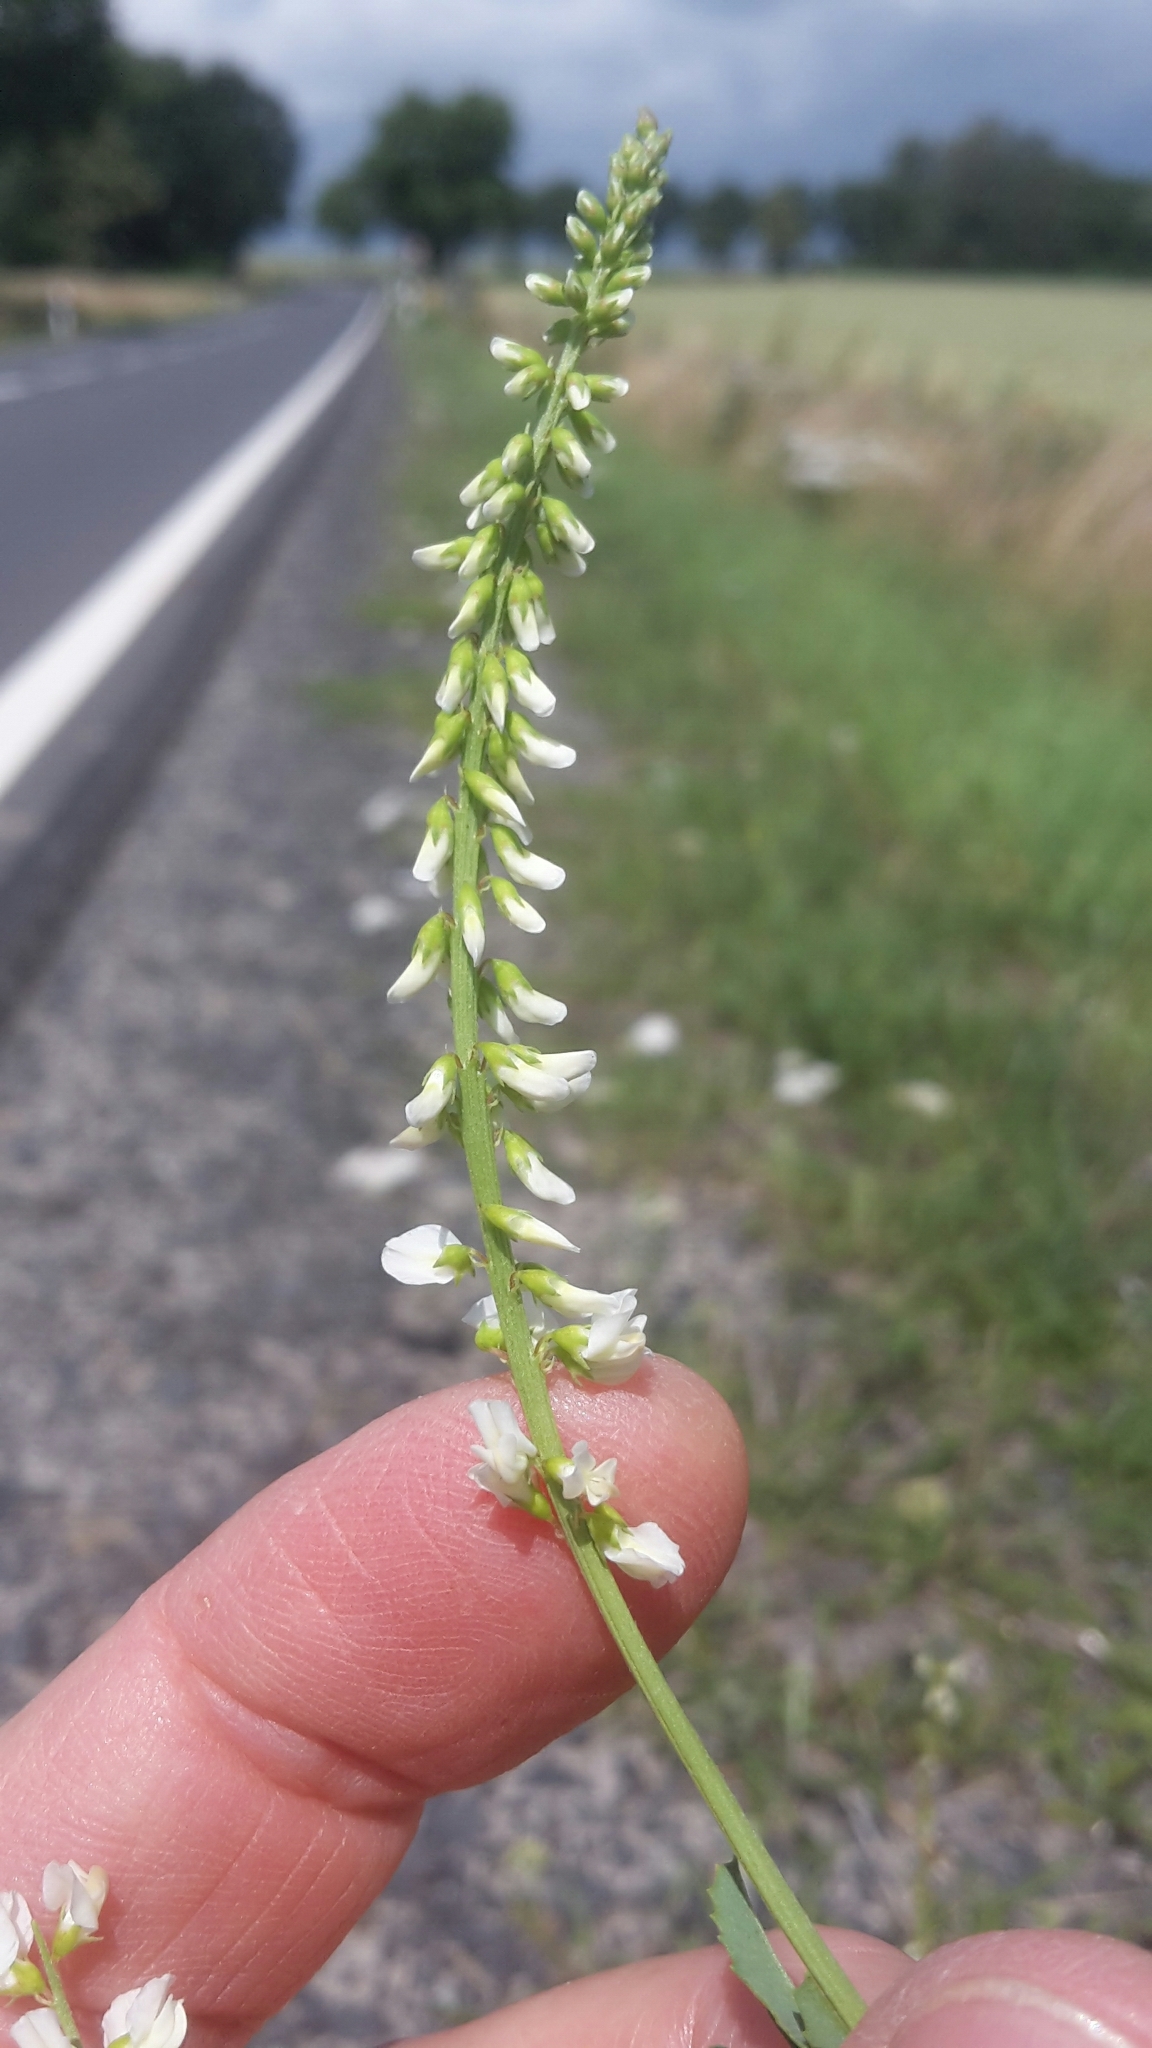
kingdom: Plantae
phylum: Tracheophyta
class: Magnoliopsida
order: Fabales
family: Fabaceae
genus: Melilotus
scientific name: Melilotus albus
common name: White melilot
